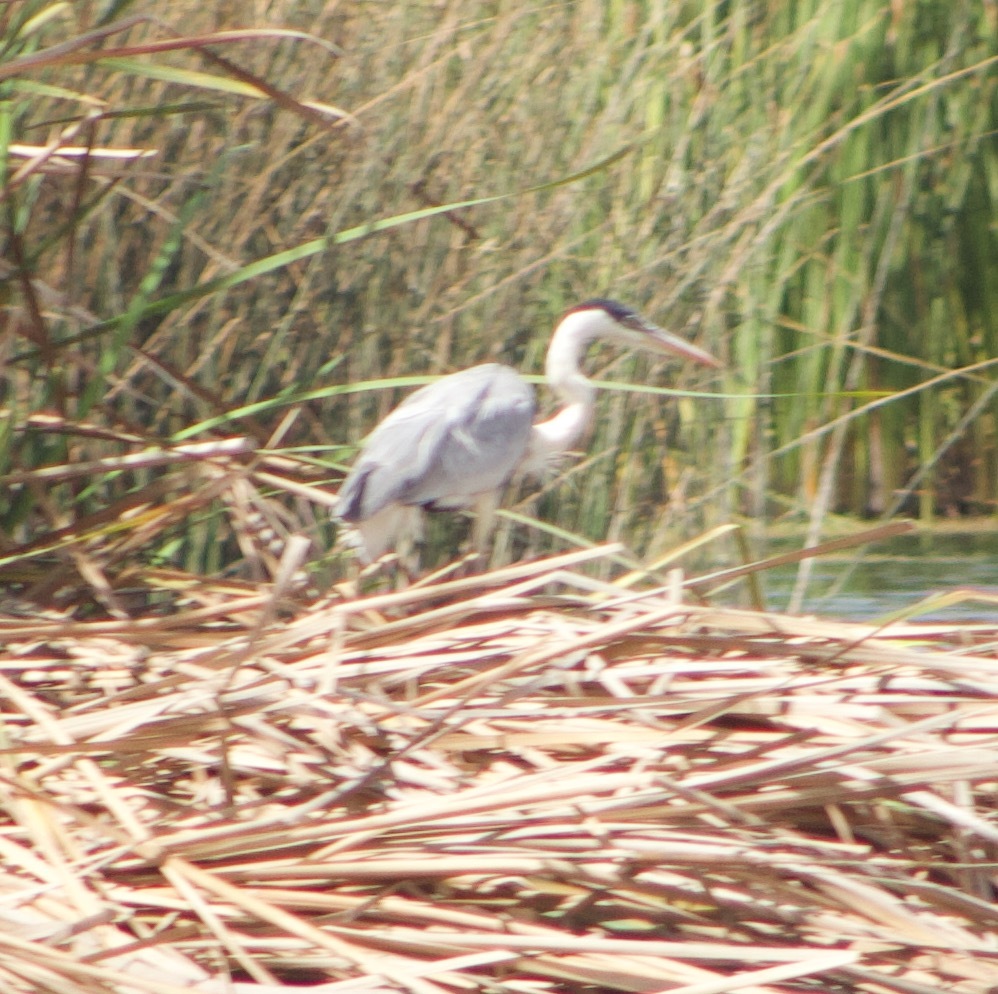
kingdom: Animalia
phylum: Chordata
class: Aves
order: Pelecaniformes
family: Ardeidae
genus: Ardea
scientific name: Ardea cocoi
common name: Cocoi heron
